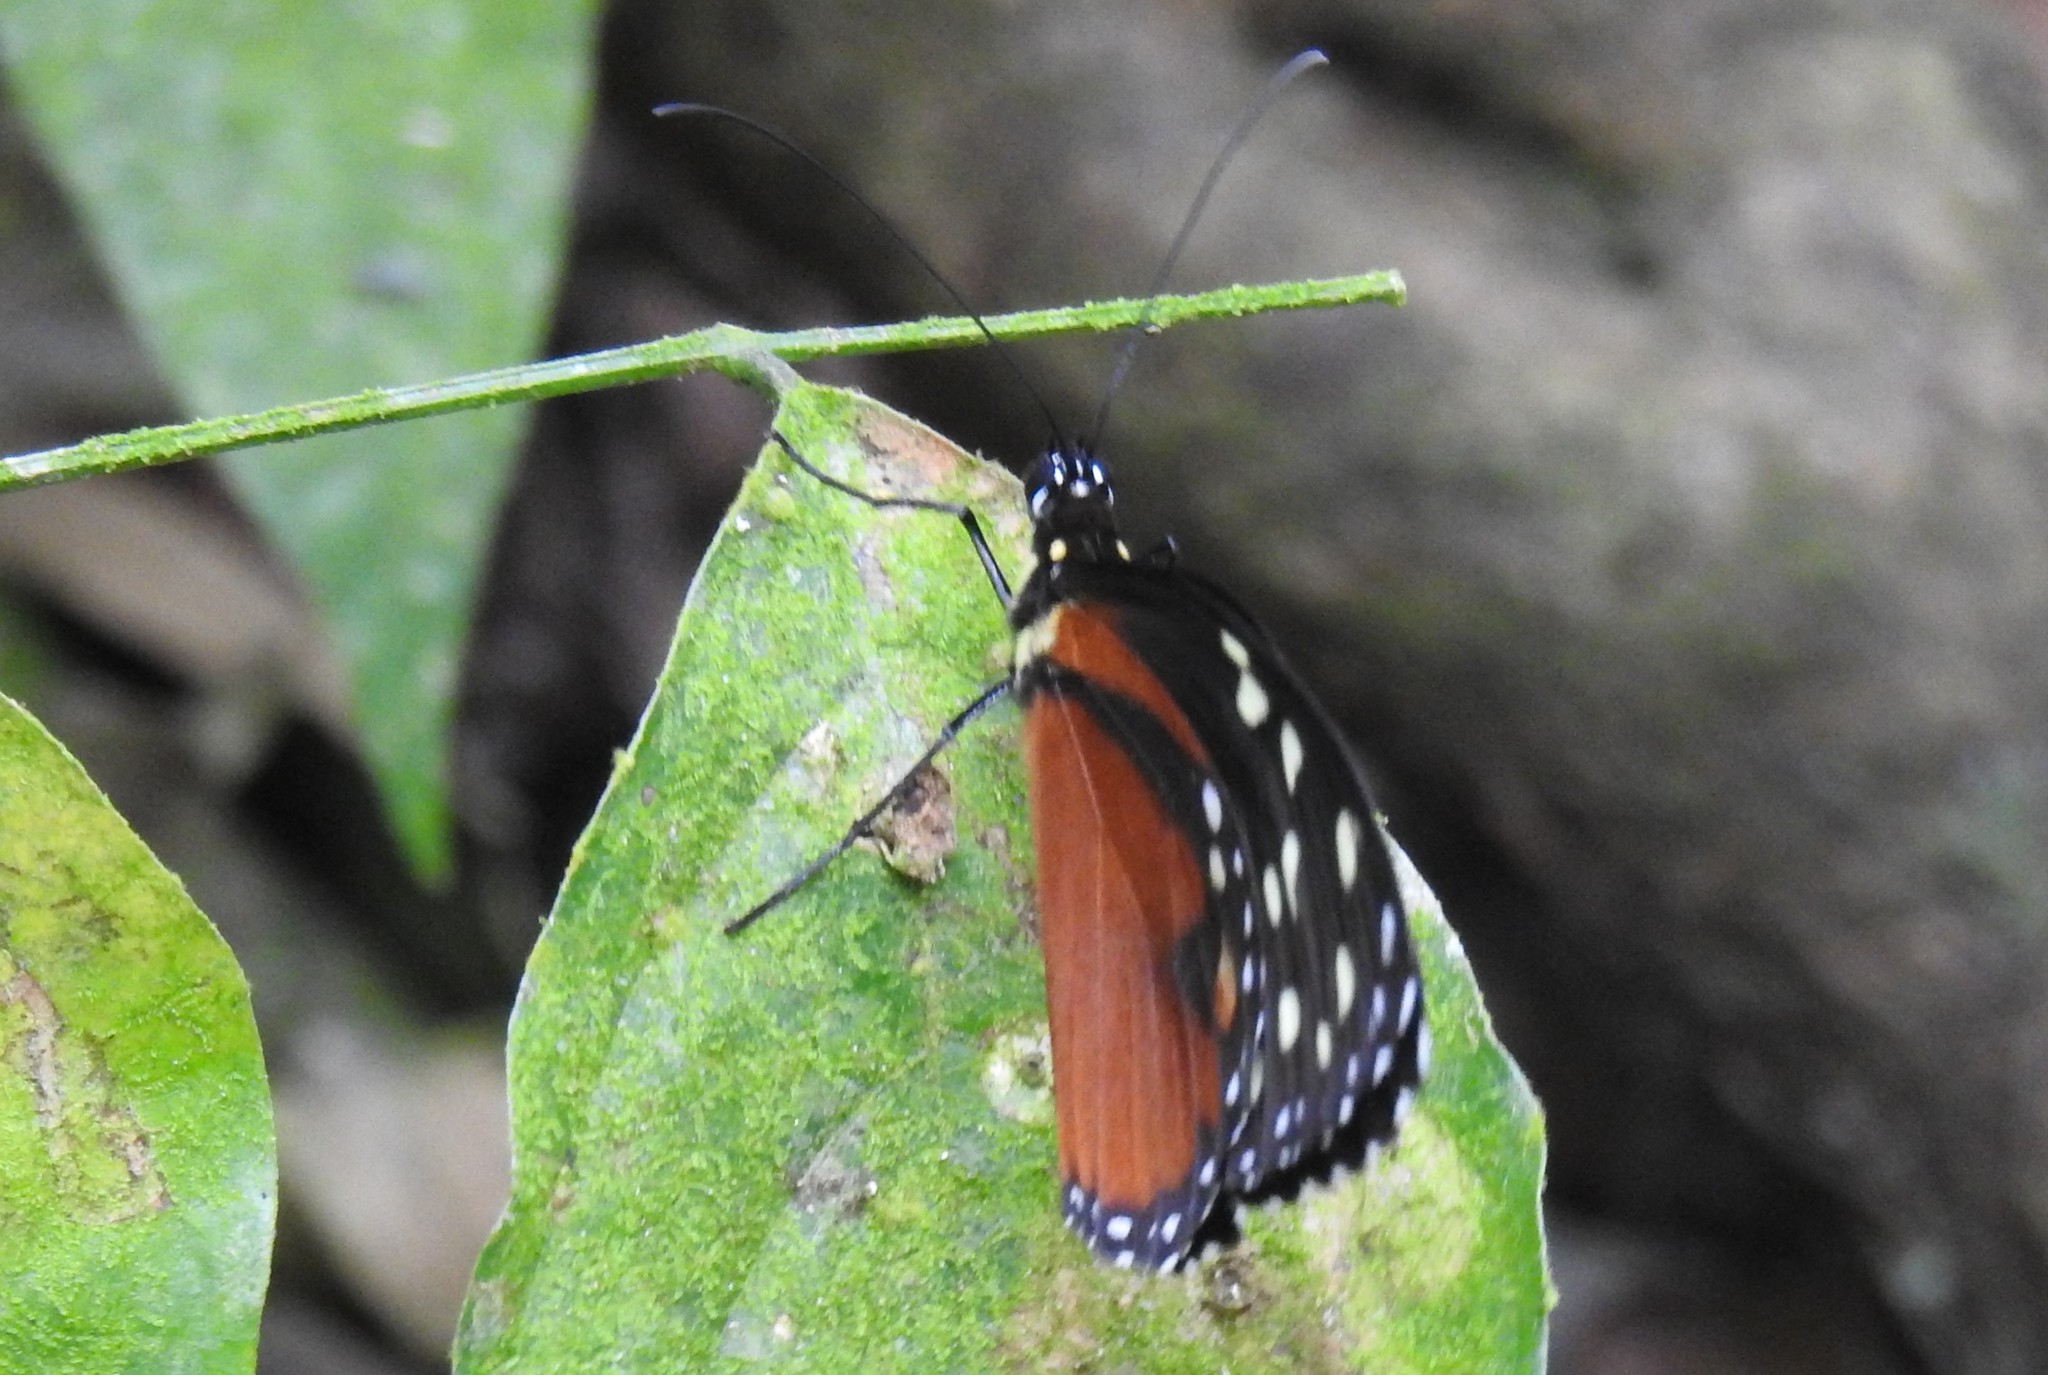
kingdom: Animalia
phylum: Arthropoda
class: Insecta
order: Lepidoptera
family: Nymphalidae
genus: Tithorea
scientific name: Tithorea tarricina
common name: Cream-spotted tigerwing
